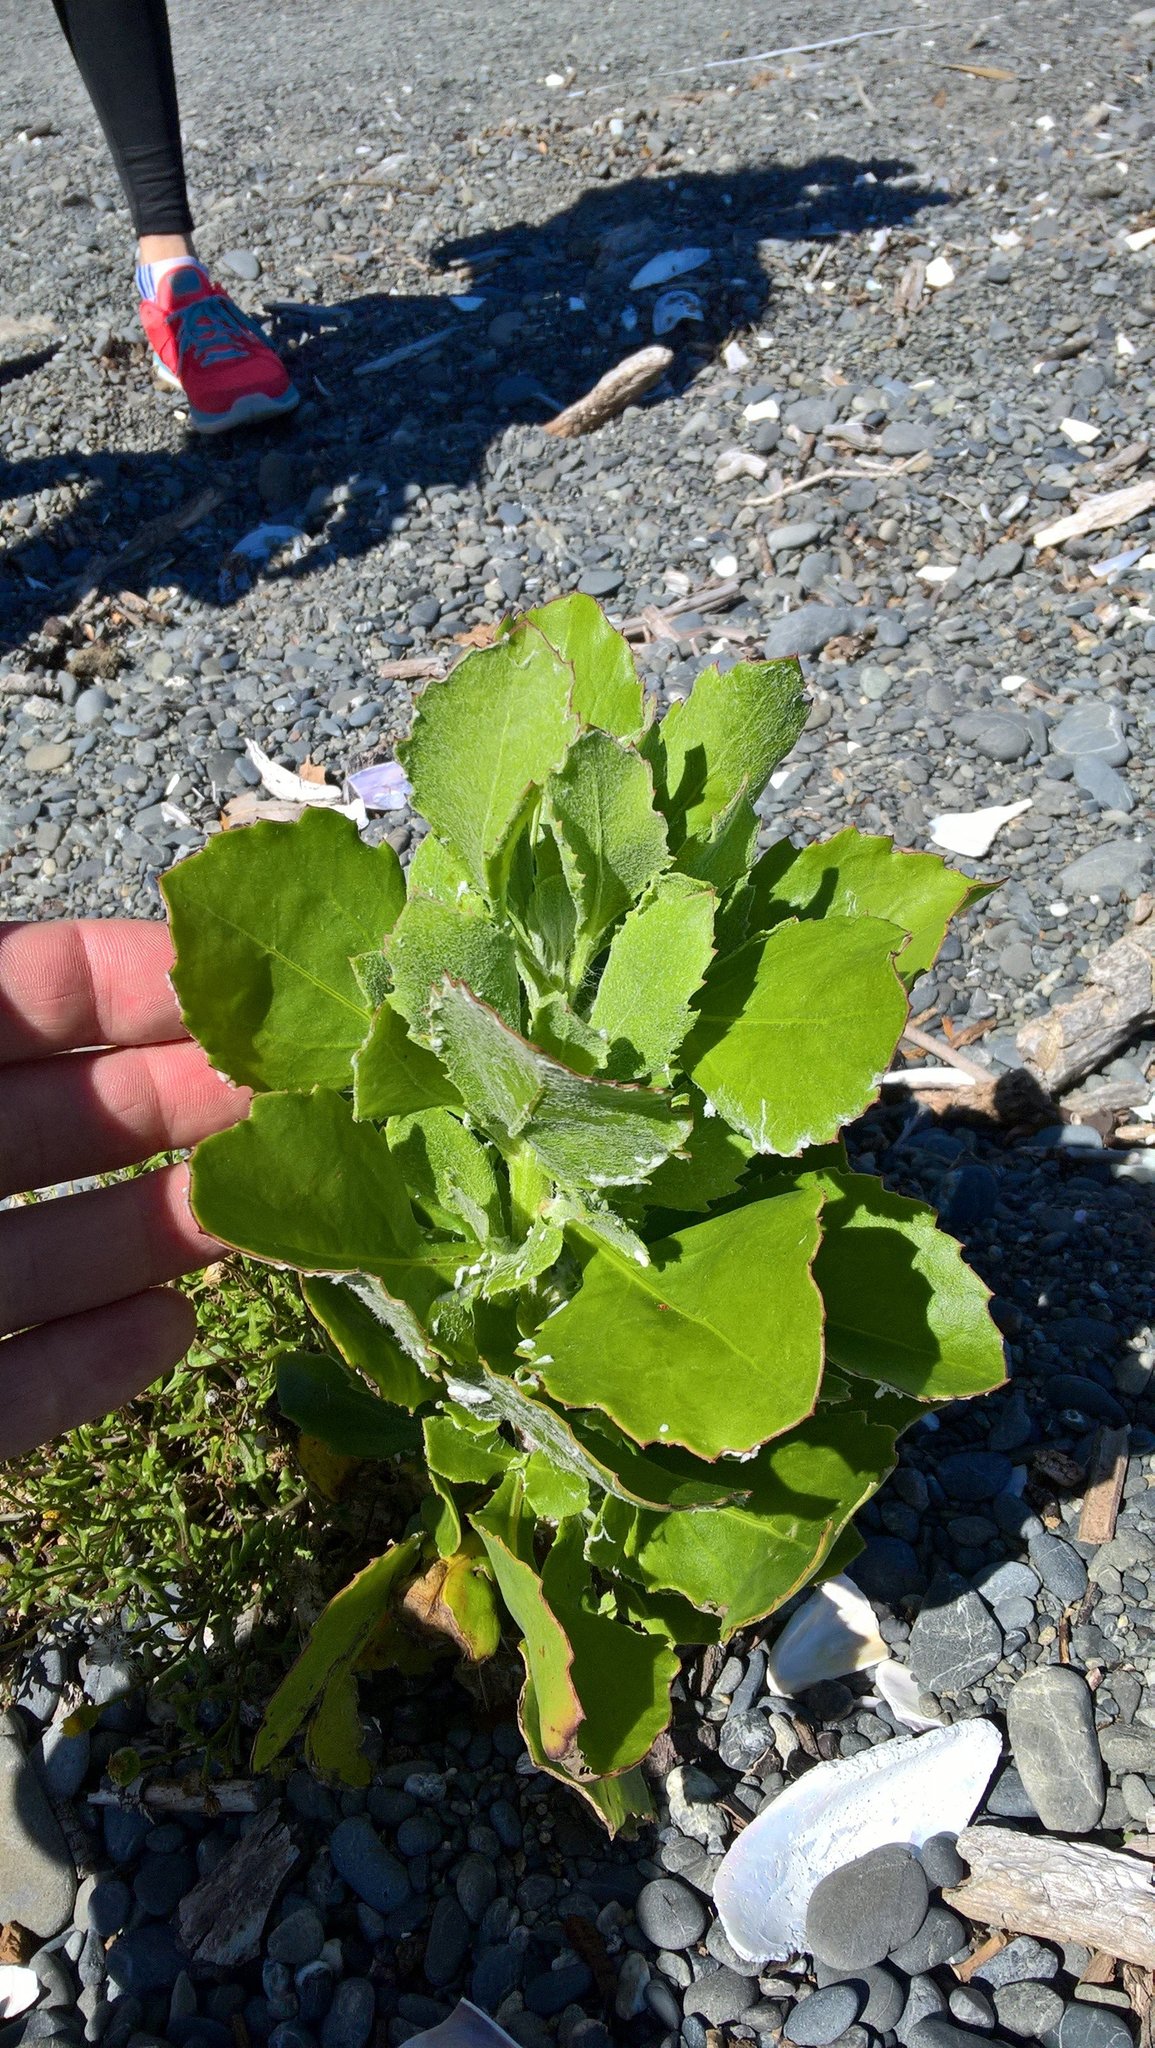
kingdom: Plantae
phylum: Tracheophyta
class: Magnoliopsida
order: Asterales
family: Asteraceae
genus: Osteospermum
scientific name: Osteospermum moniliferum
